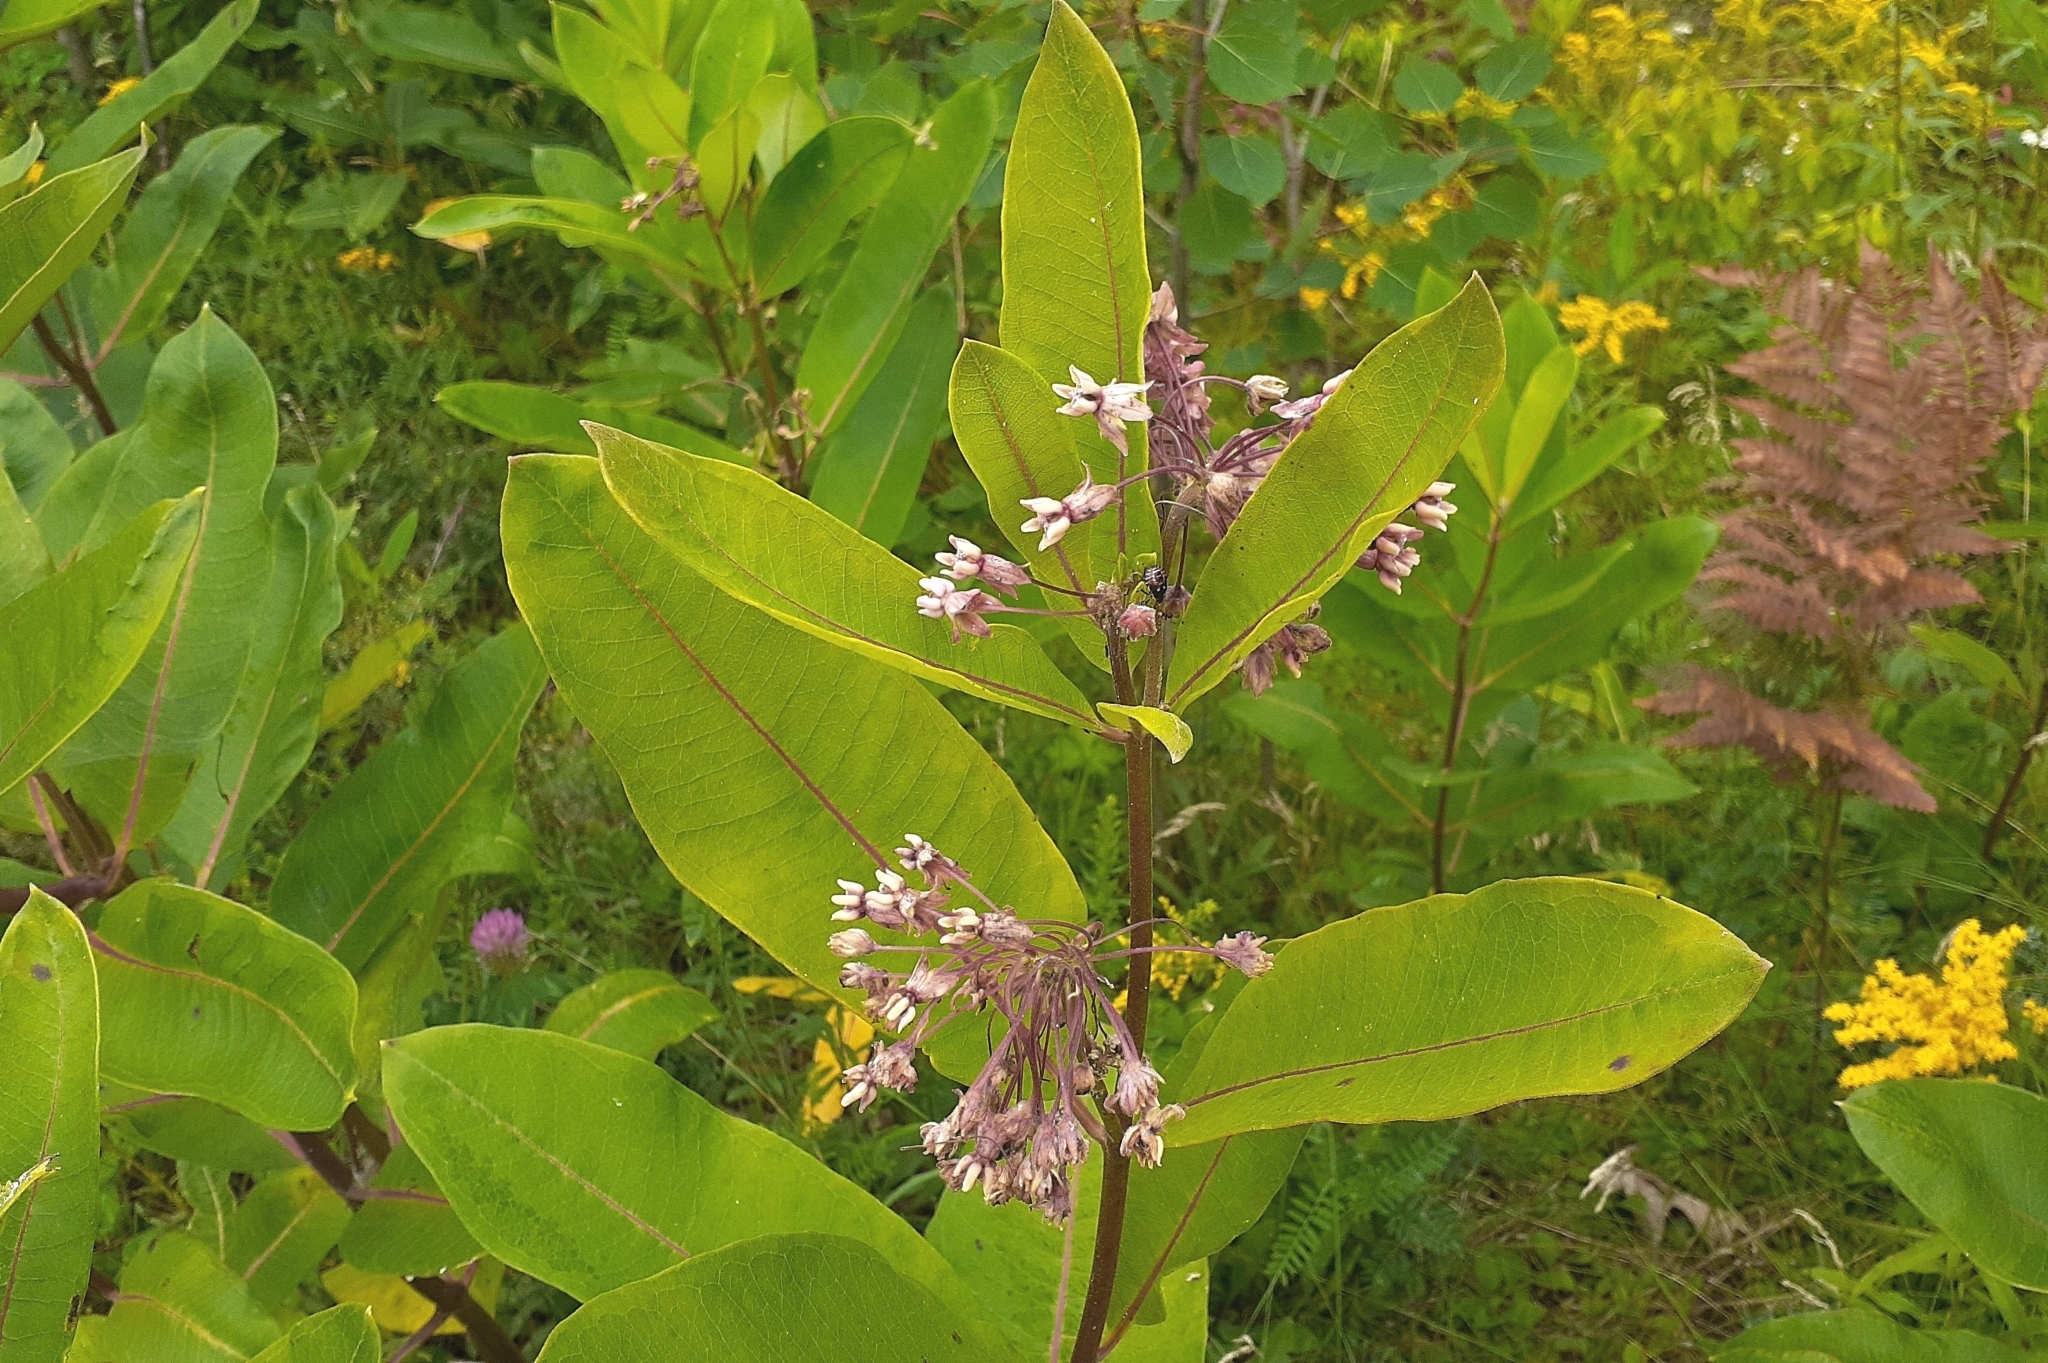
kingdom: Plantae
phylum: Tracheophyta
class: Magnoliopsida
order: Gentianales
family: Apocynaceae
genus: Asclepias
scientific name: Asclepias syriaca
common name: Common milkweed
